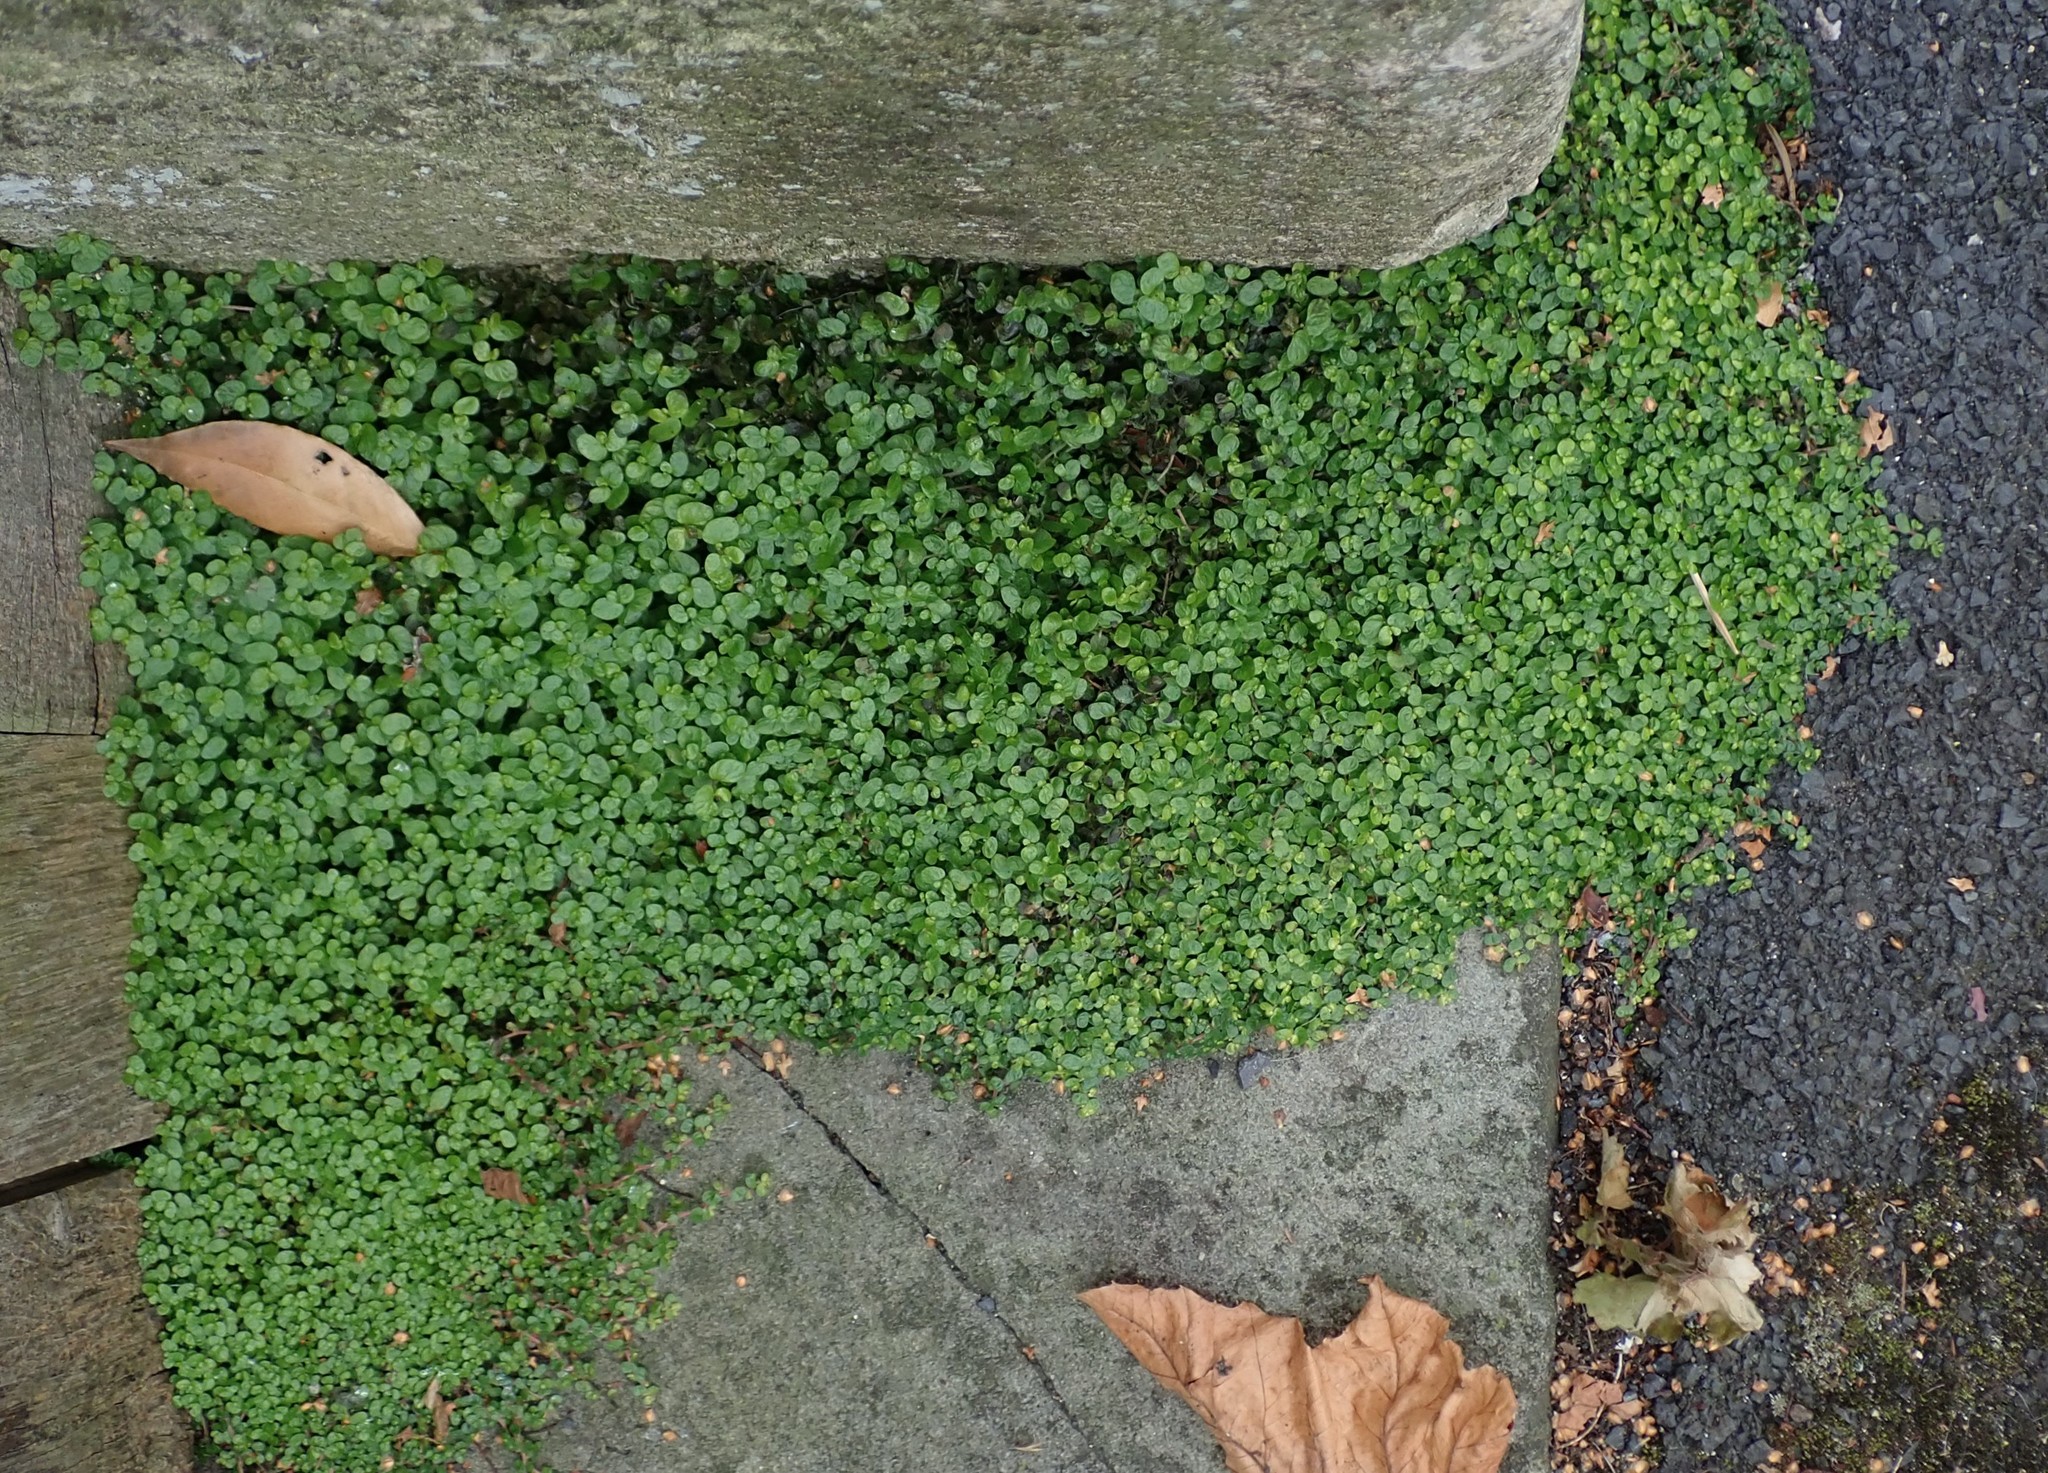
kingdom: Plantae
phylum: Tracheophyta
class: Magnoliopsida
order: Rosales
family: Urticaceae
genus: Soleirolia
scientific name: Soleirolia soleirolii
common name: Mind-your-own-business
